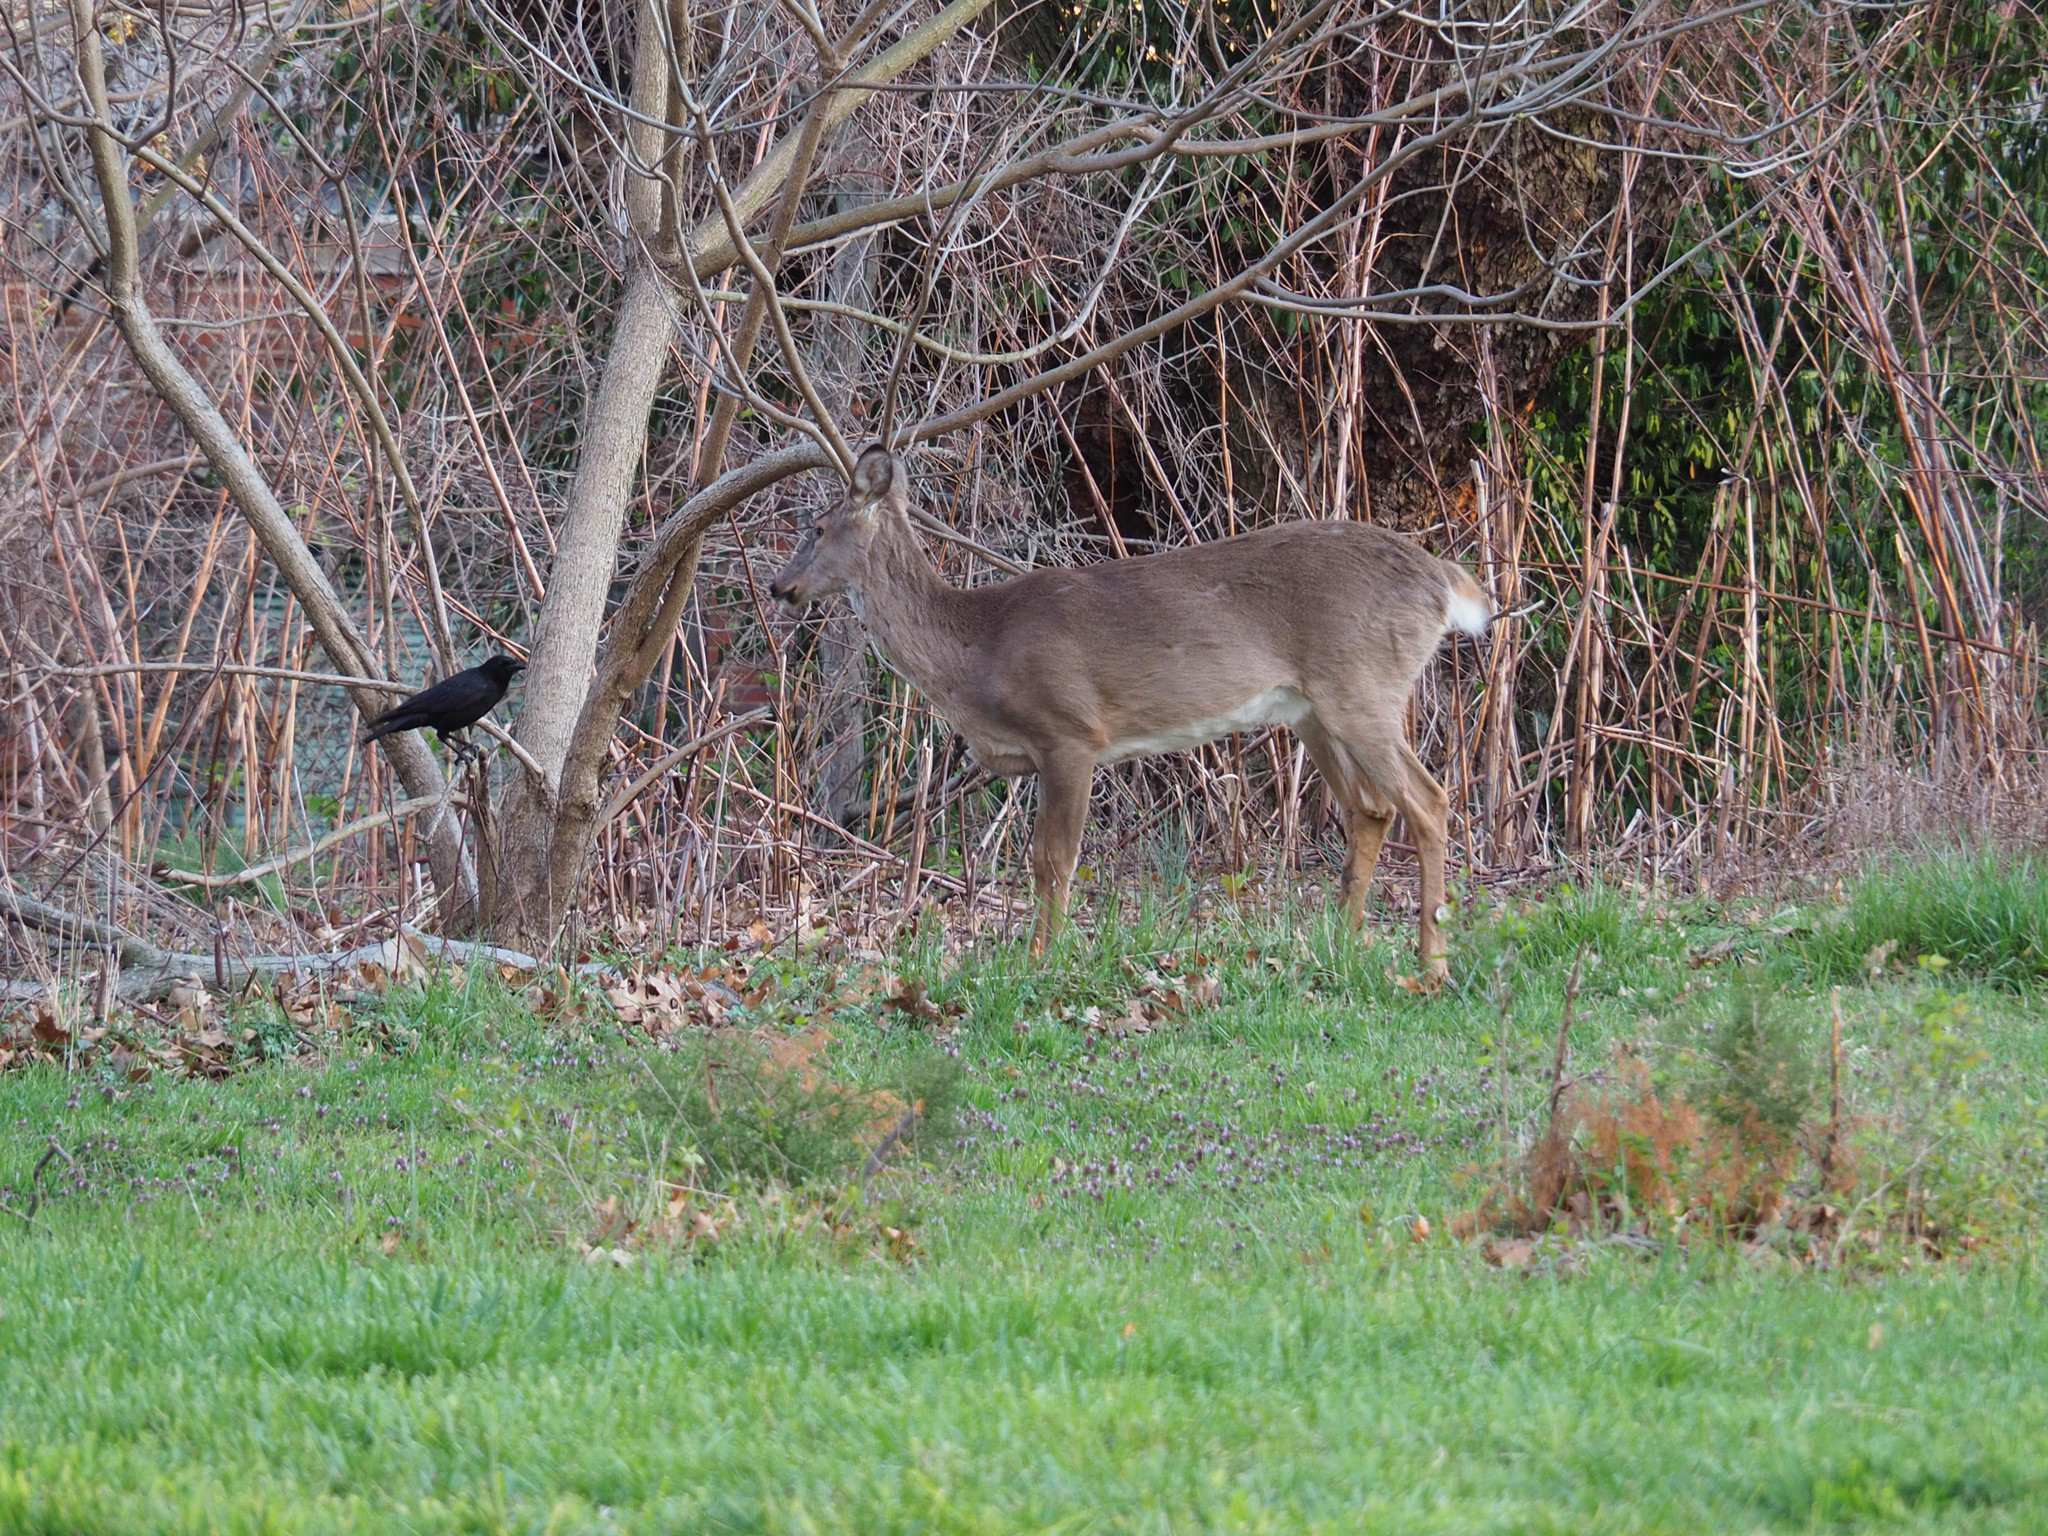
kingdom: Animalia
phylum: Chordata
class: Mammalia
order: Artiodactyla
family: Cervidae
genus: Odocoileus
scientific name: Odocoileus virginianus
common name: White-tailed deer
